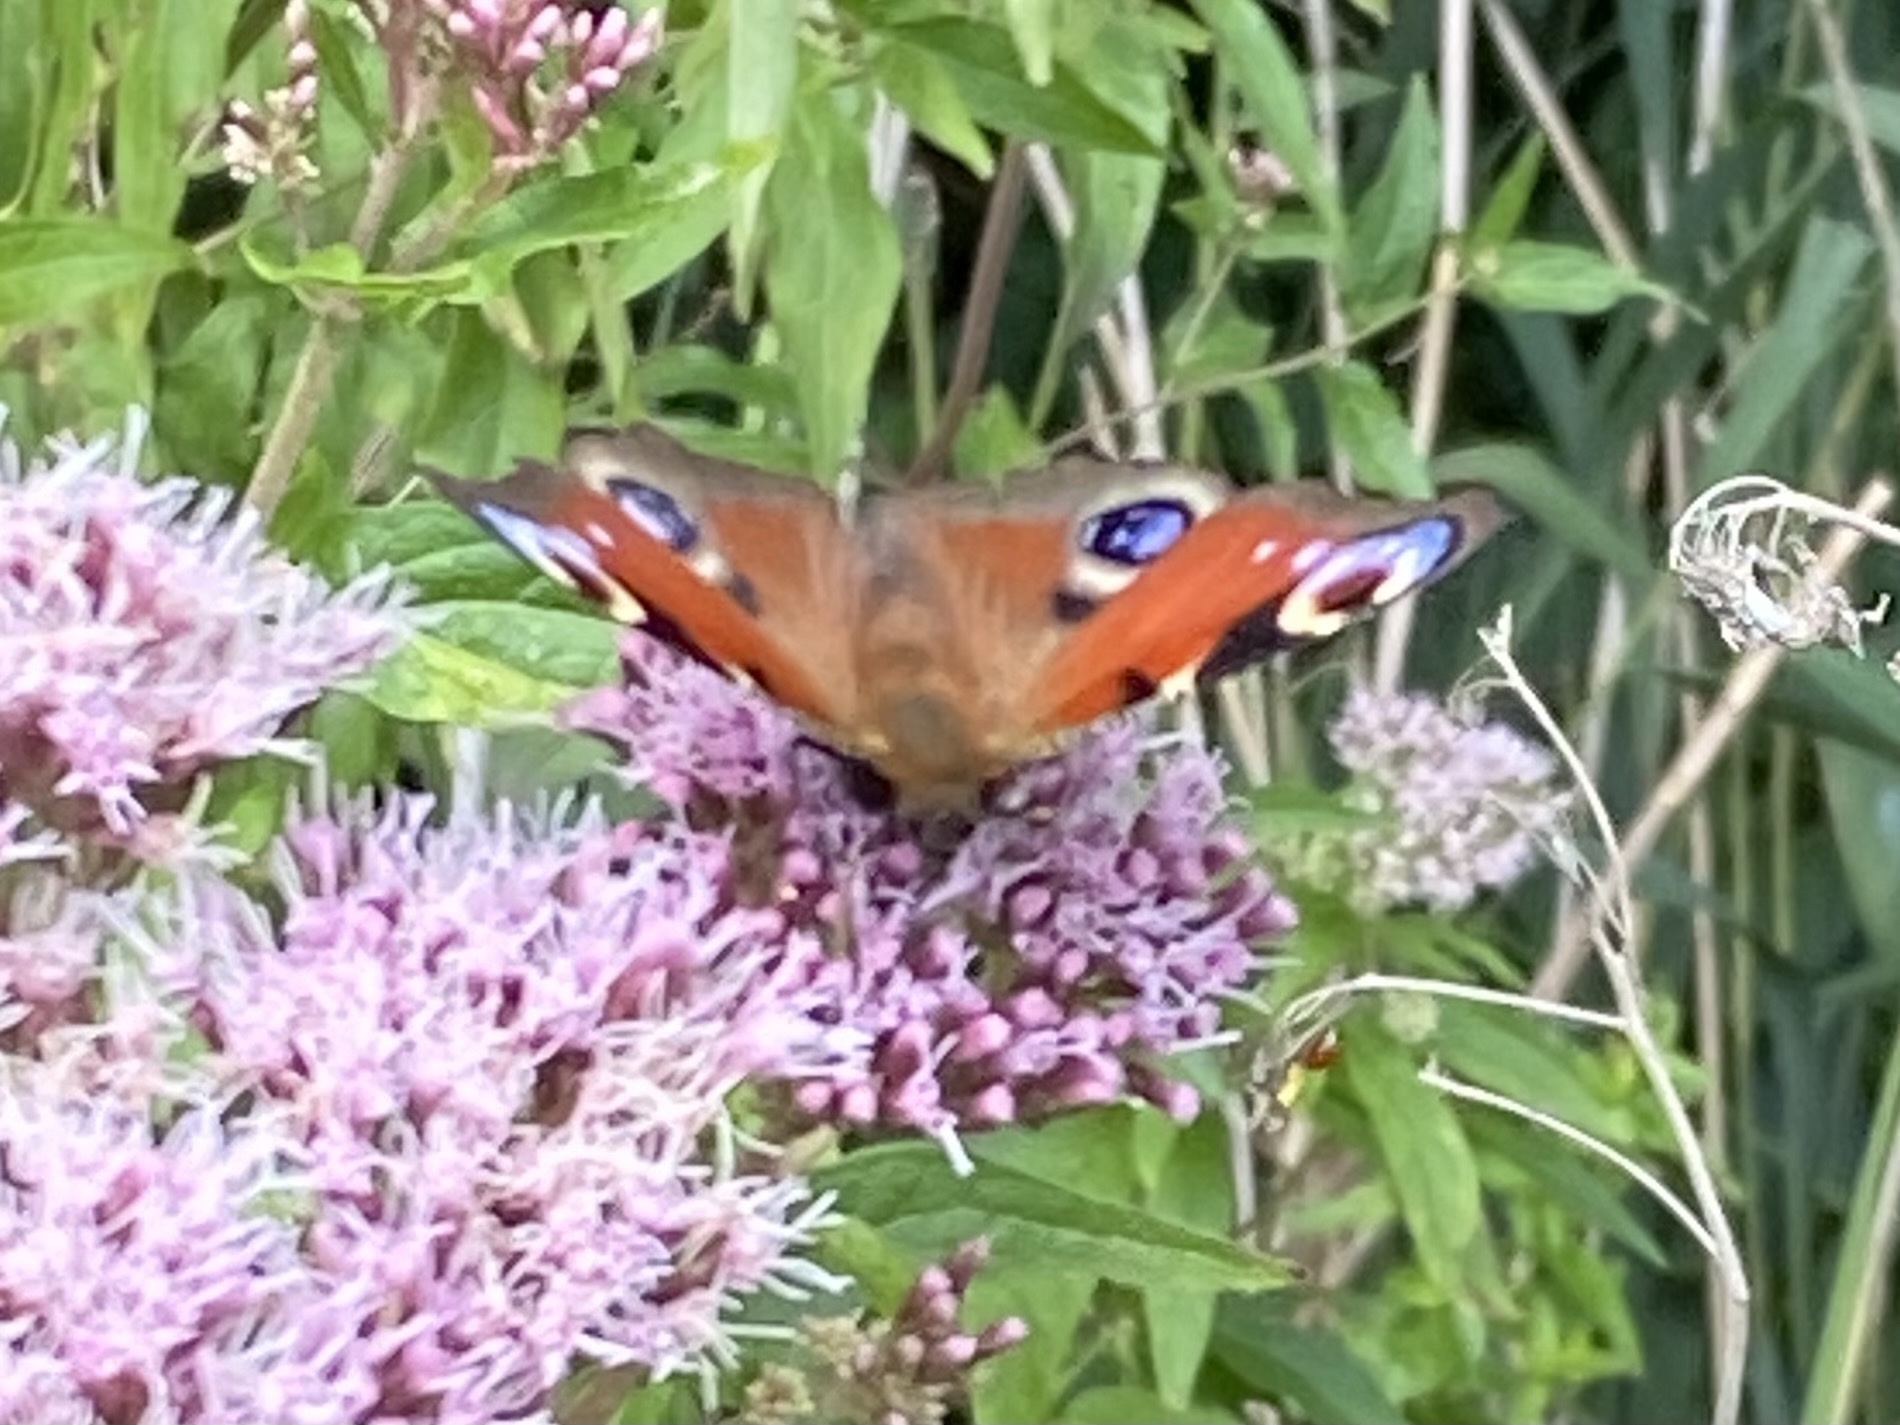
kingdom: Animalia
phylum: Arthropoda
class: Insecta
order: Lepidoptera
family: Nymphalidae
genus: Aglais
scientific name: Aglais io
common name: Peacock
